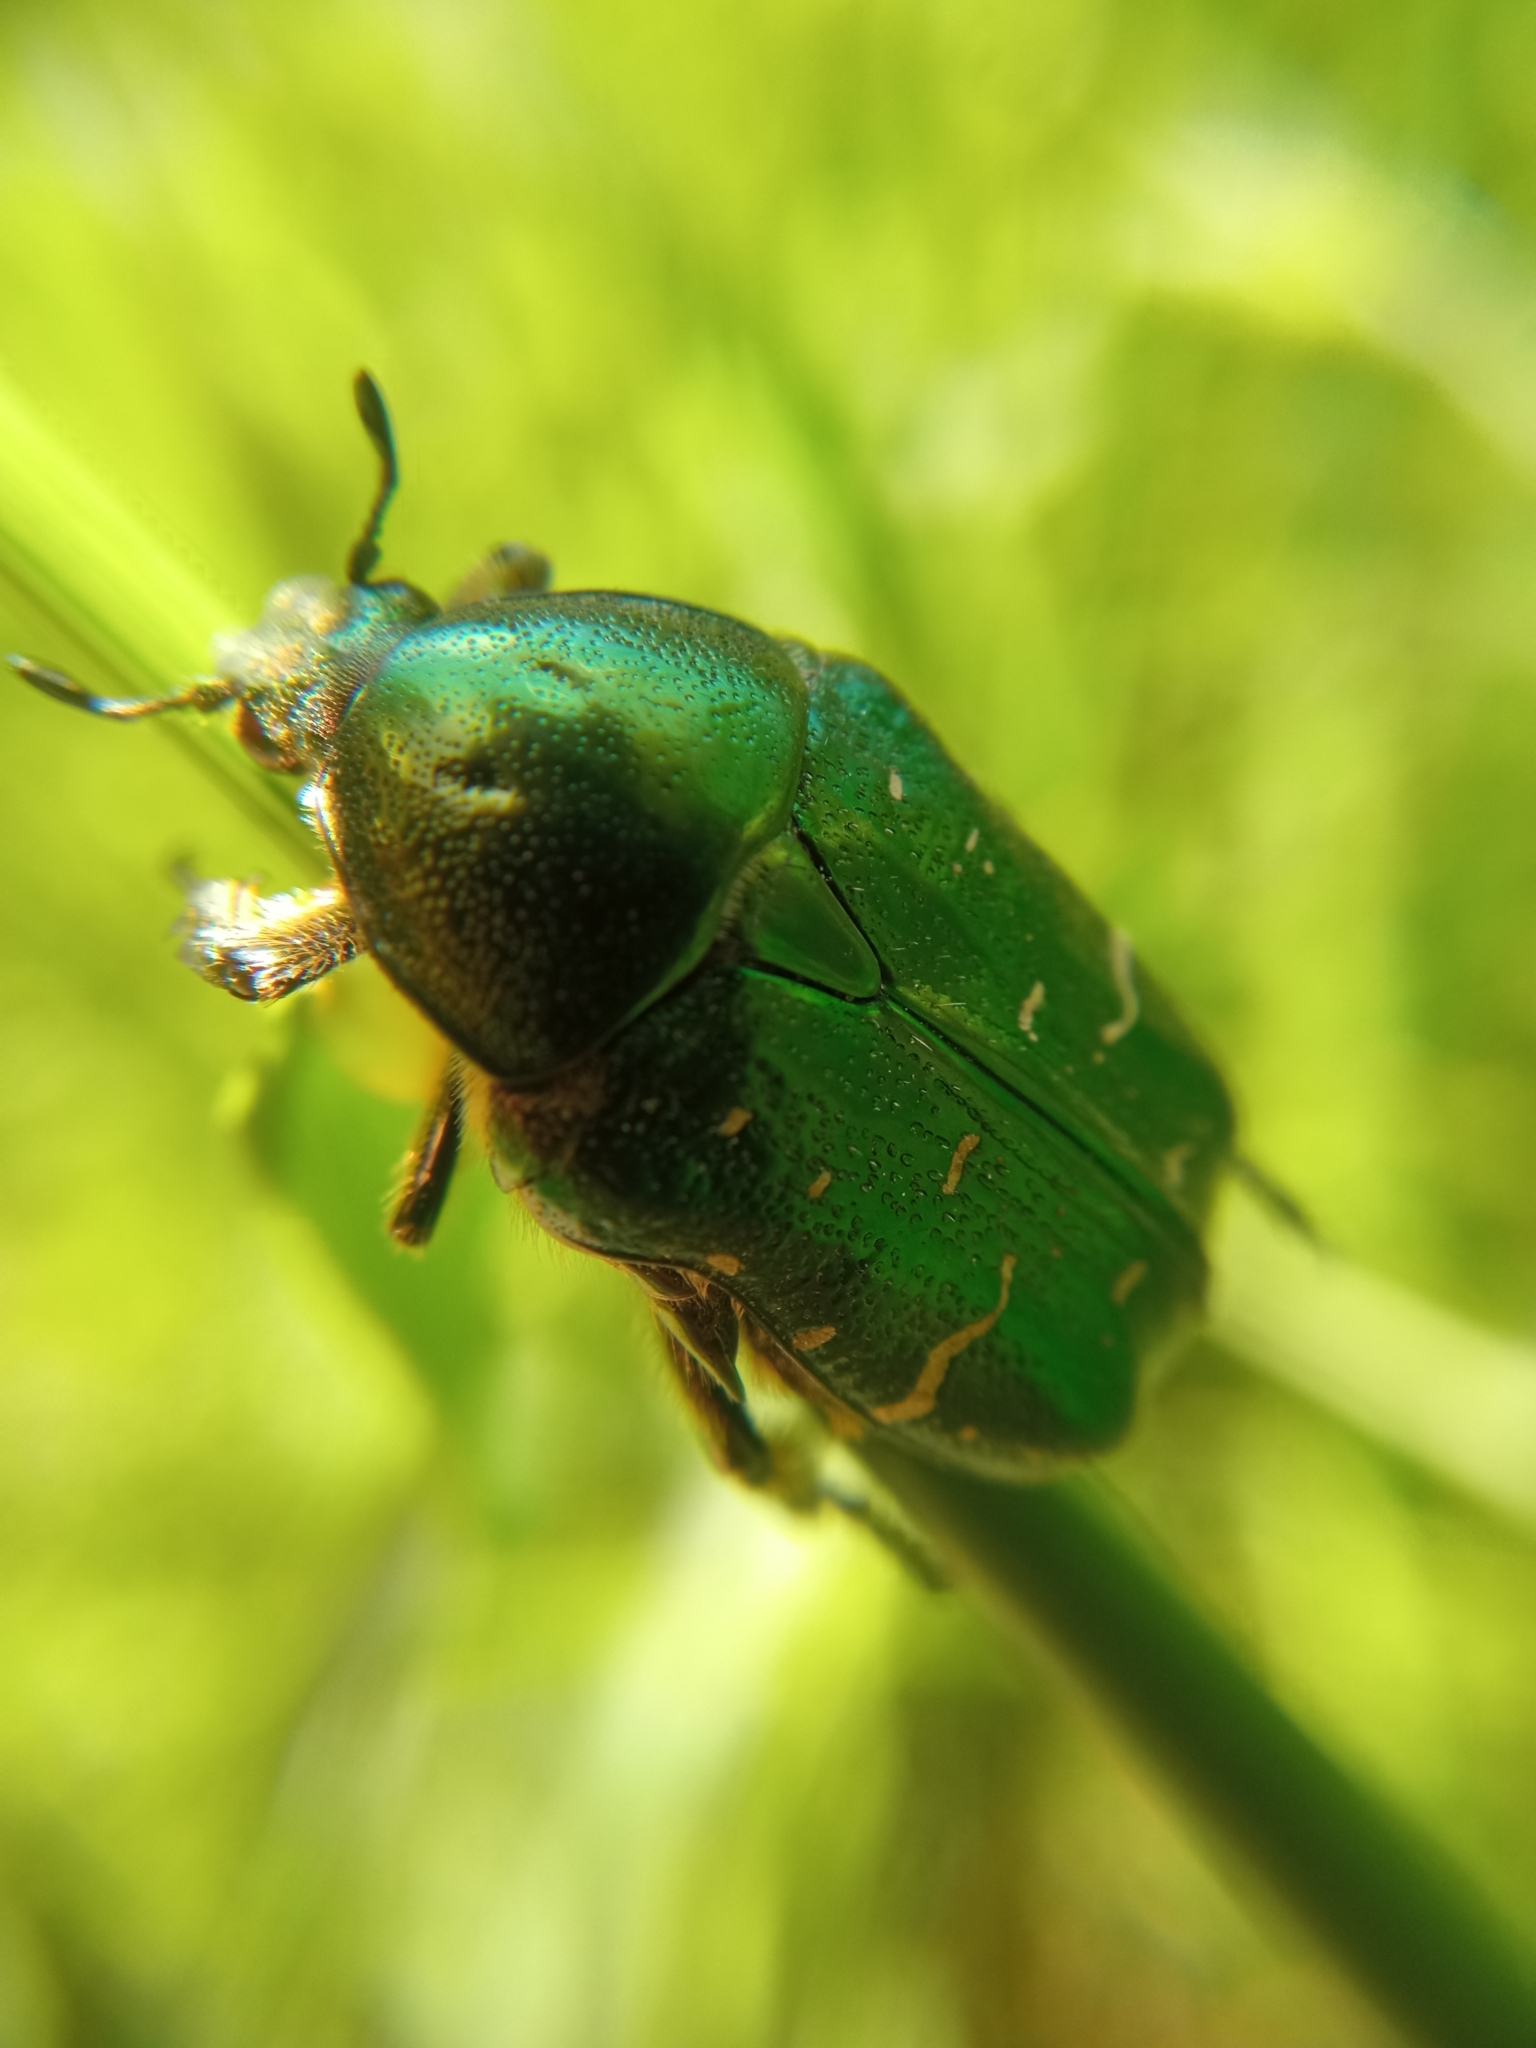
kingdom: Animalia
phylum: Arthropoda
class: Insecta
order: Coleoptera
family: Scarabaeidae
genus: Cetonia
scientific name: Cetonia aurata
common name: Rose chafer
